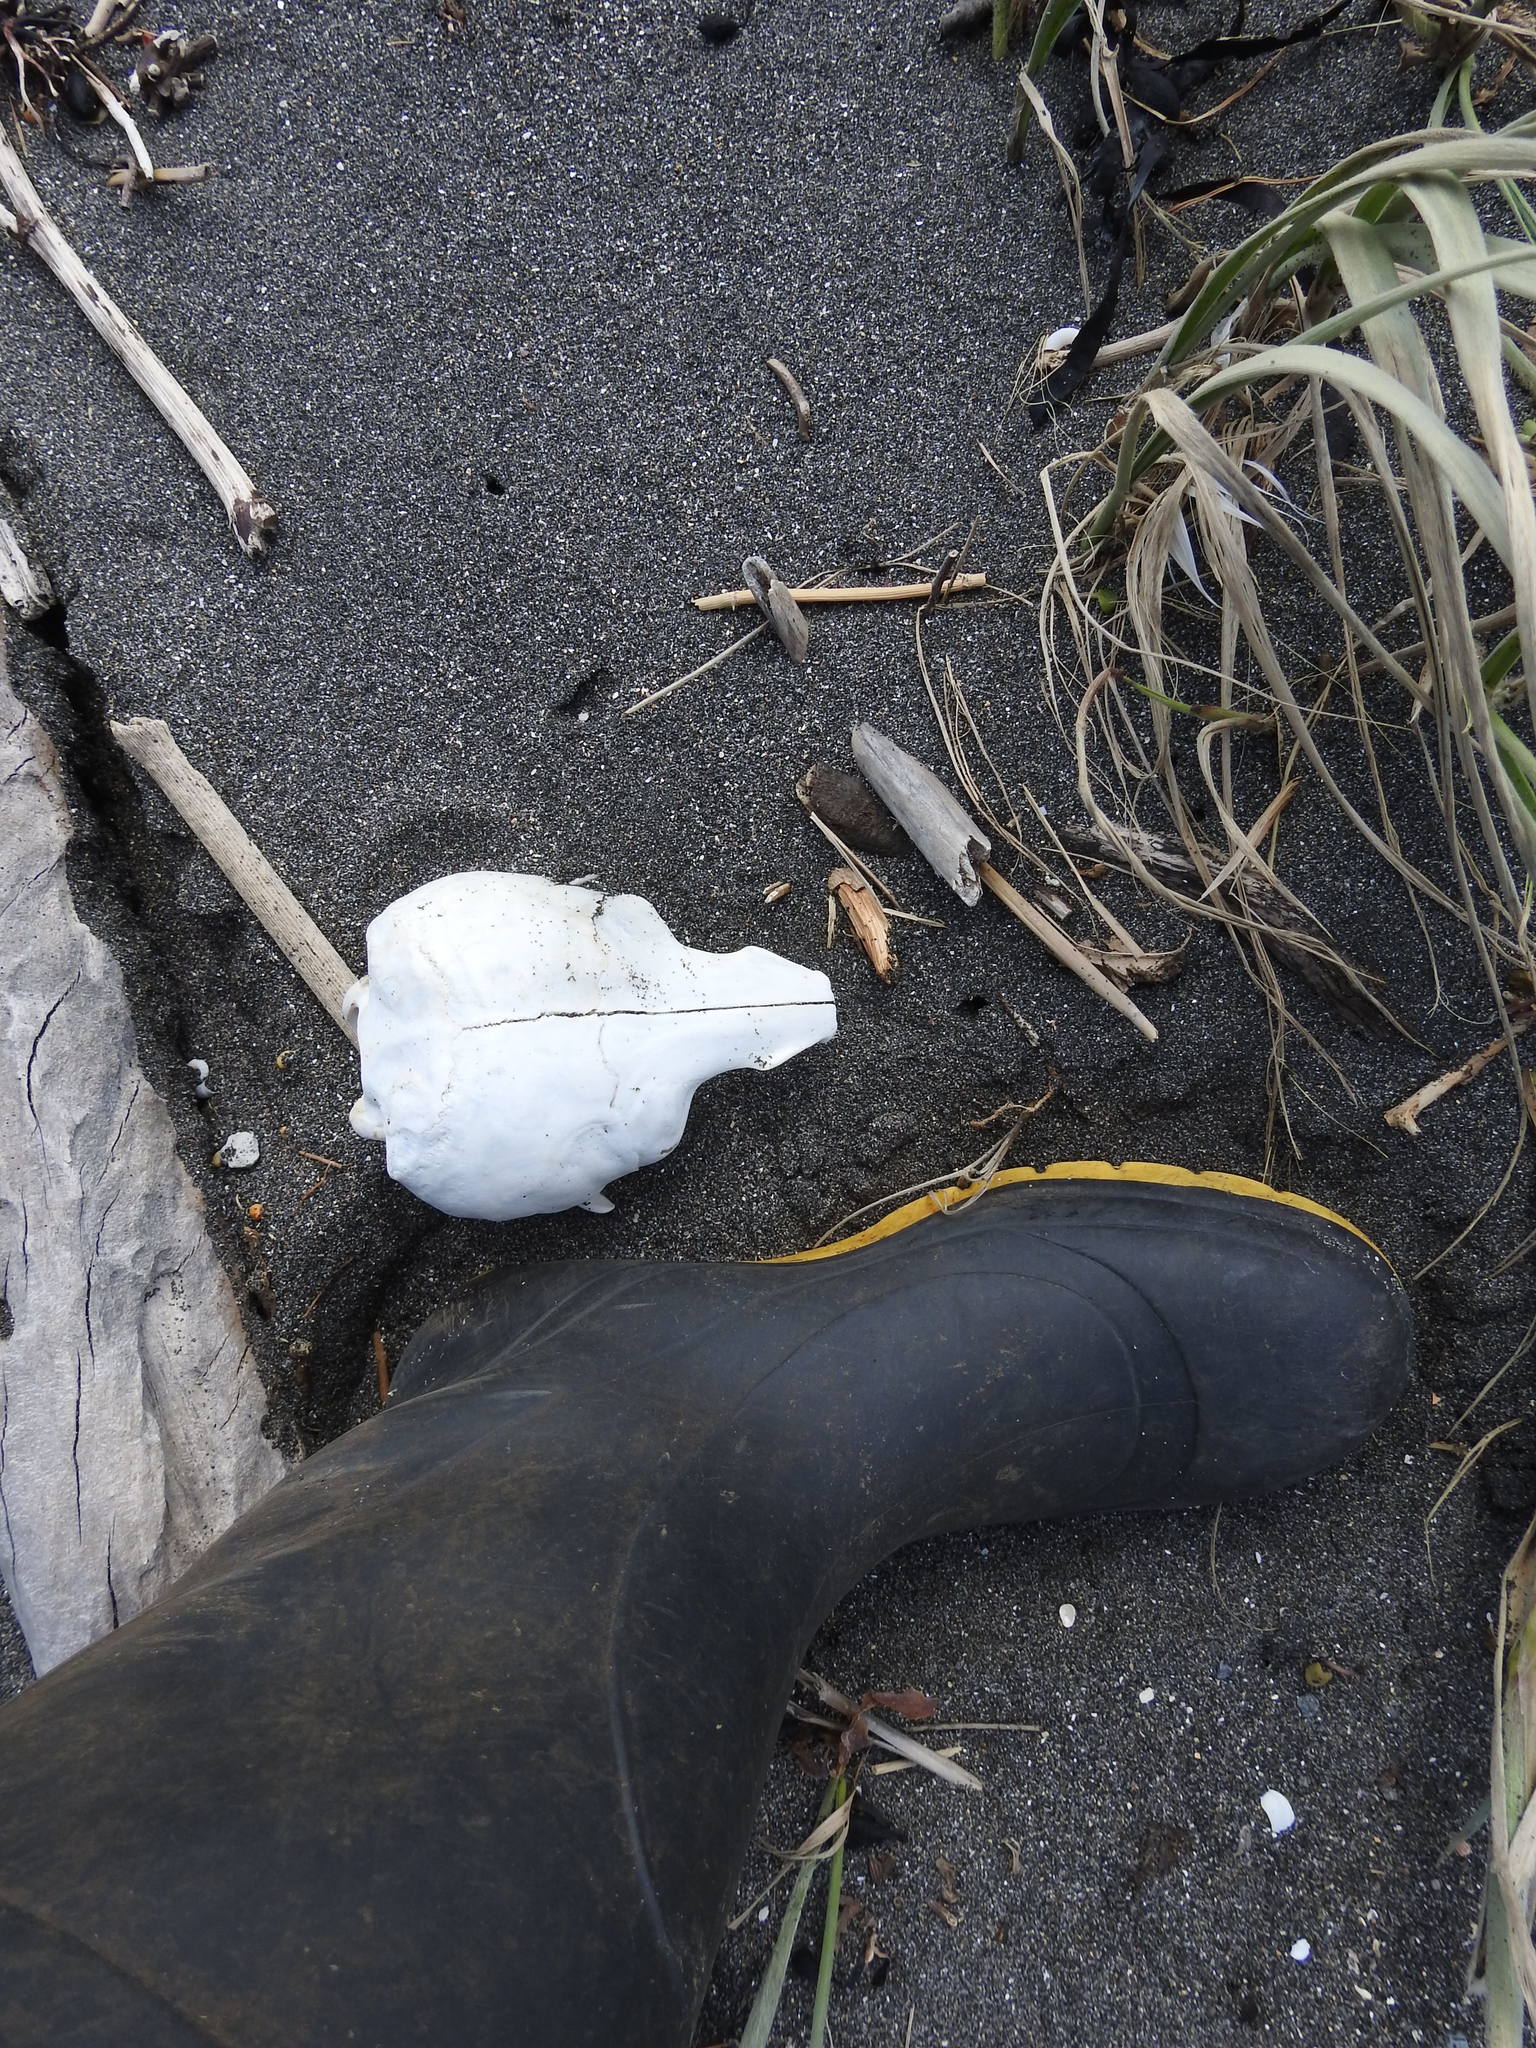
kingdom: Animalia
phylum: Chordata
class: Mammalia
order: Carnivora
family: Otariidae
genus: Arctocephalus
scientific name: Arctocephalus forsteri
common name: New zealand fur seal
